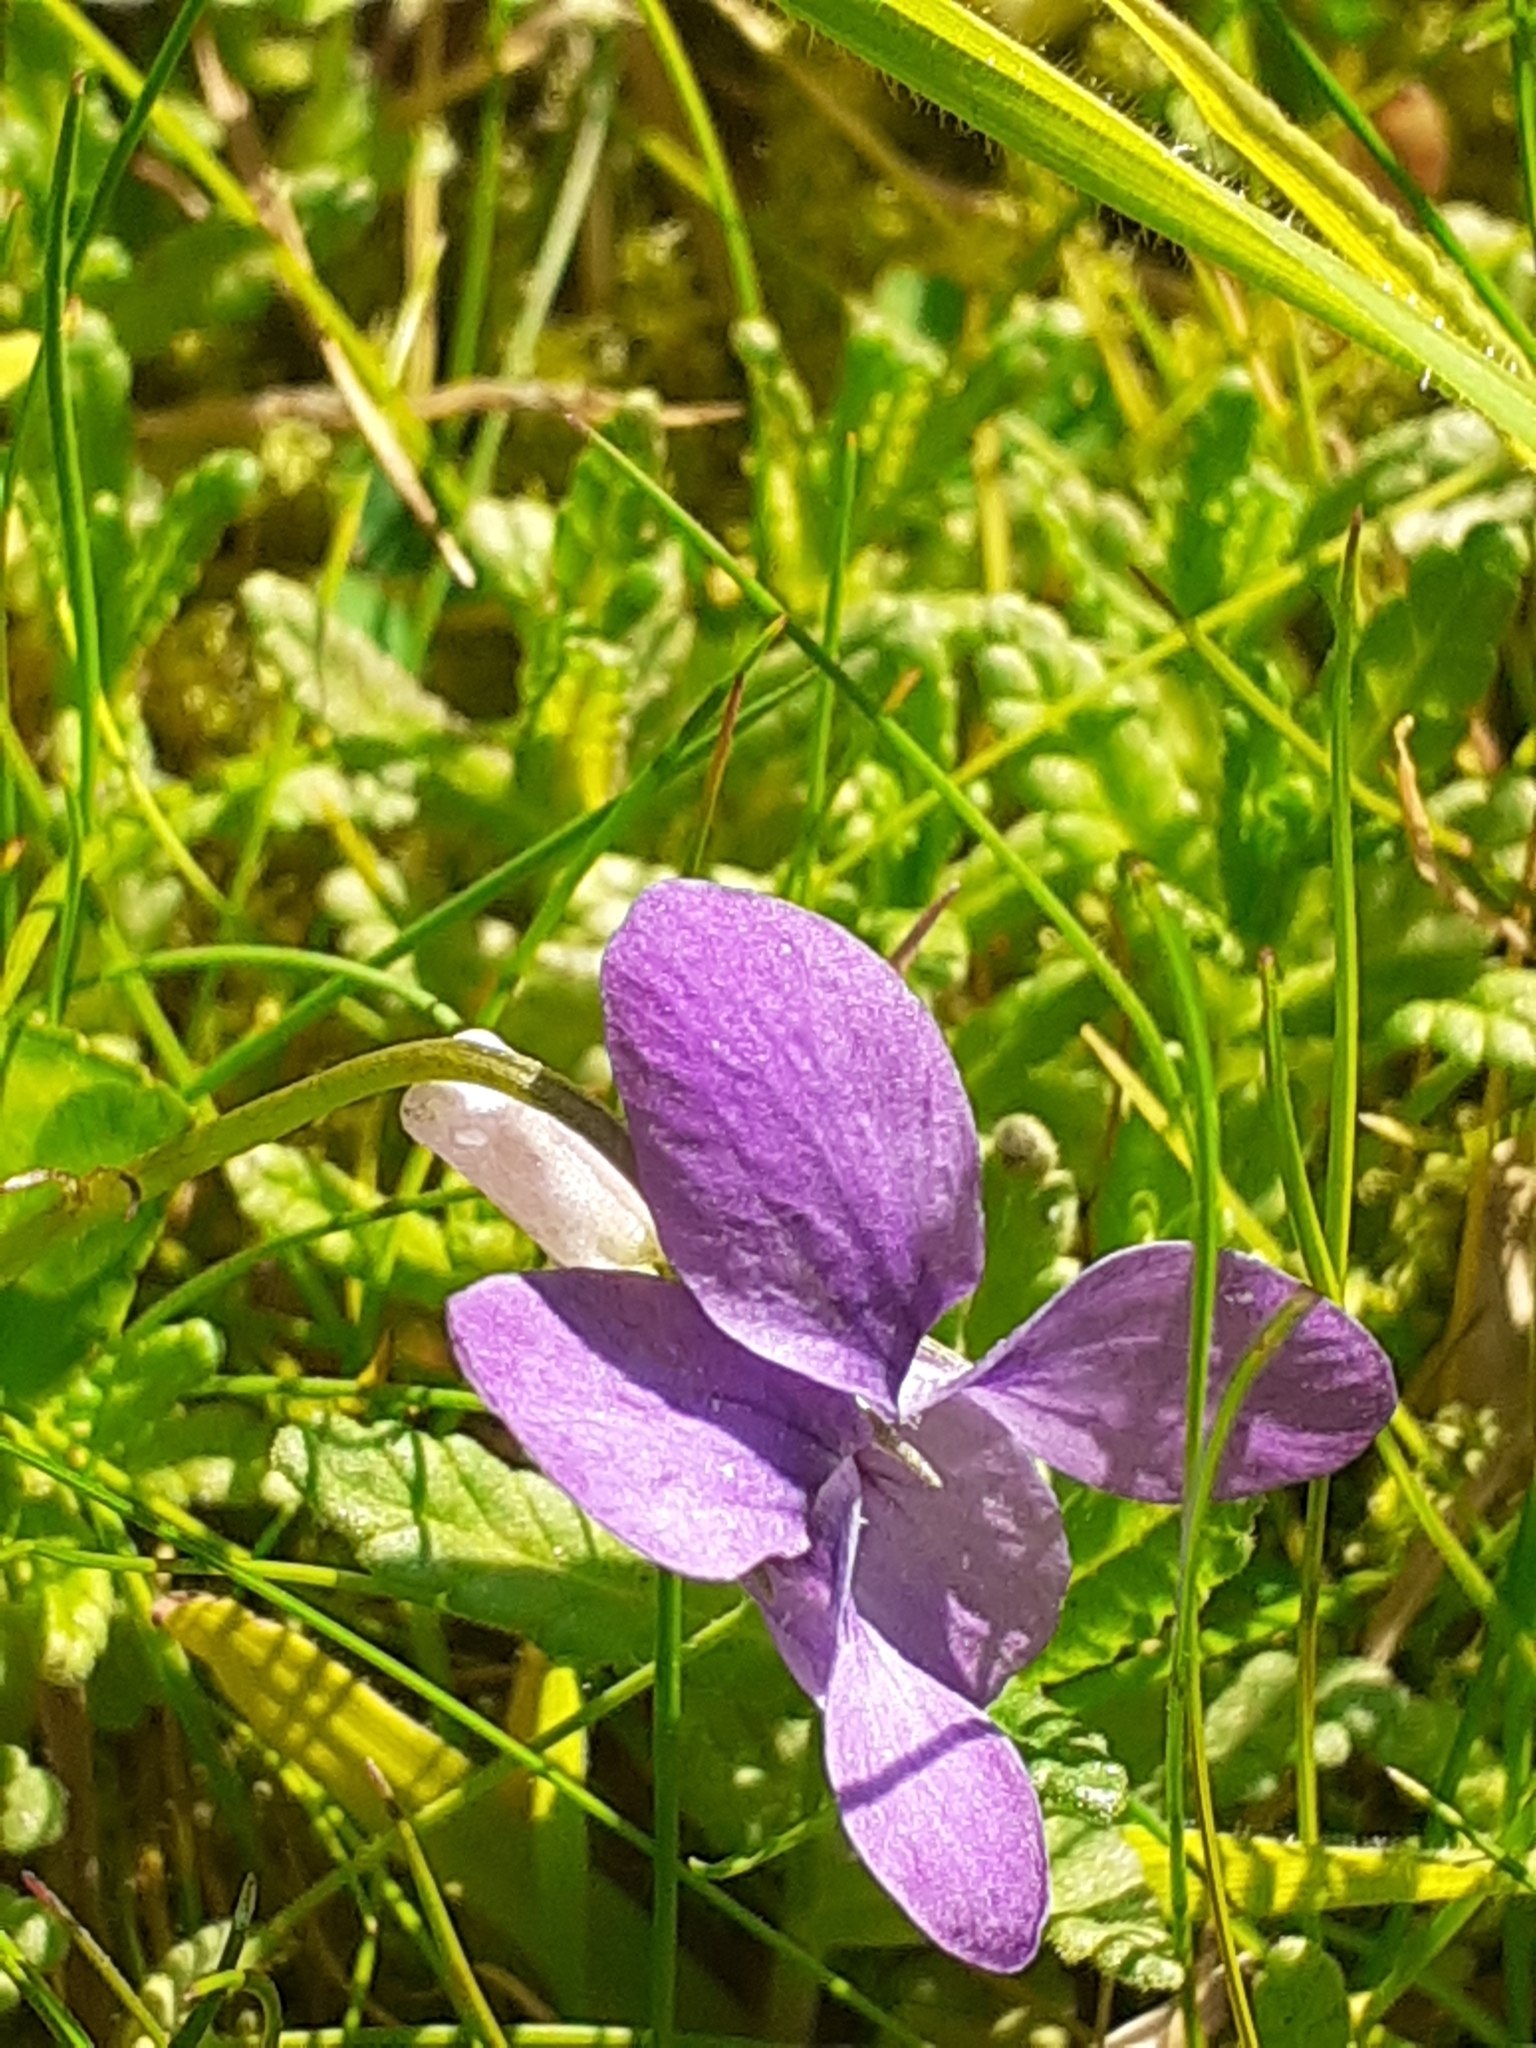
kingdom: Plantae
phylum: Tracheophyta
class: Magnoliopsida
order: Malpighiales
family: Violaceae
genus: Viola
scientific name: Viola riviniana
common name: Common dog-violet
